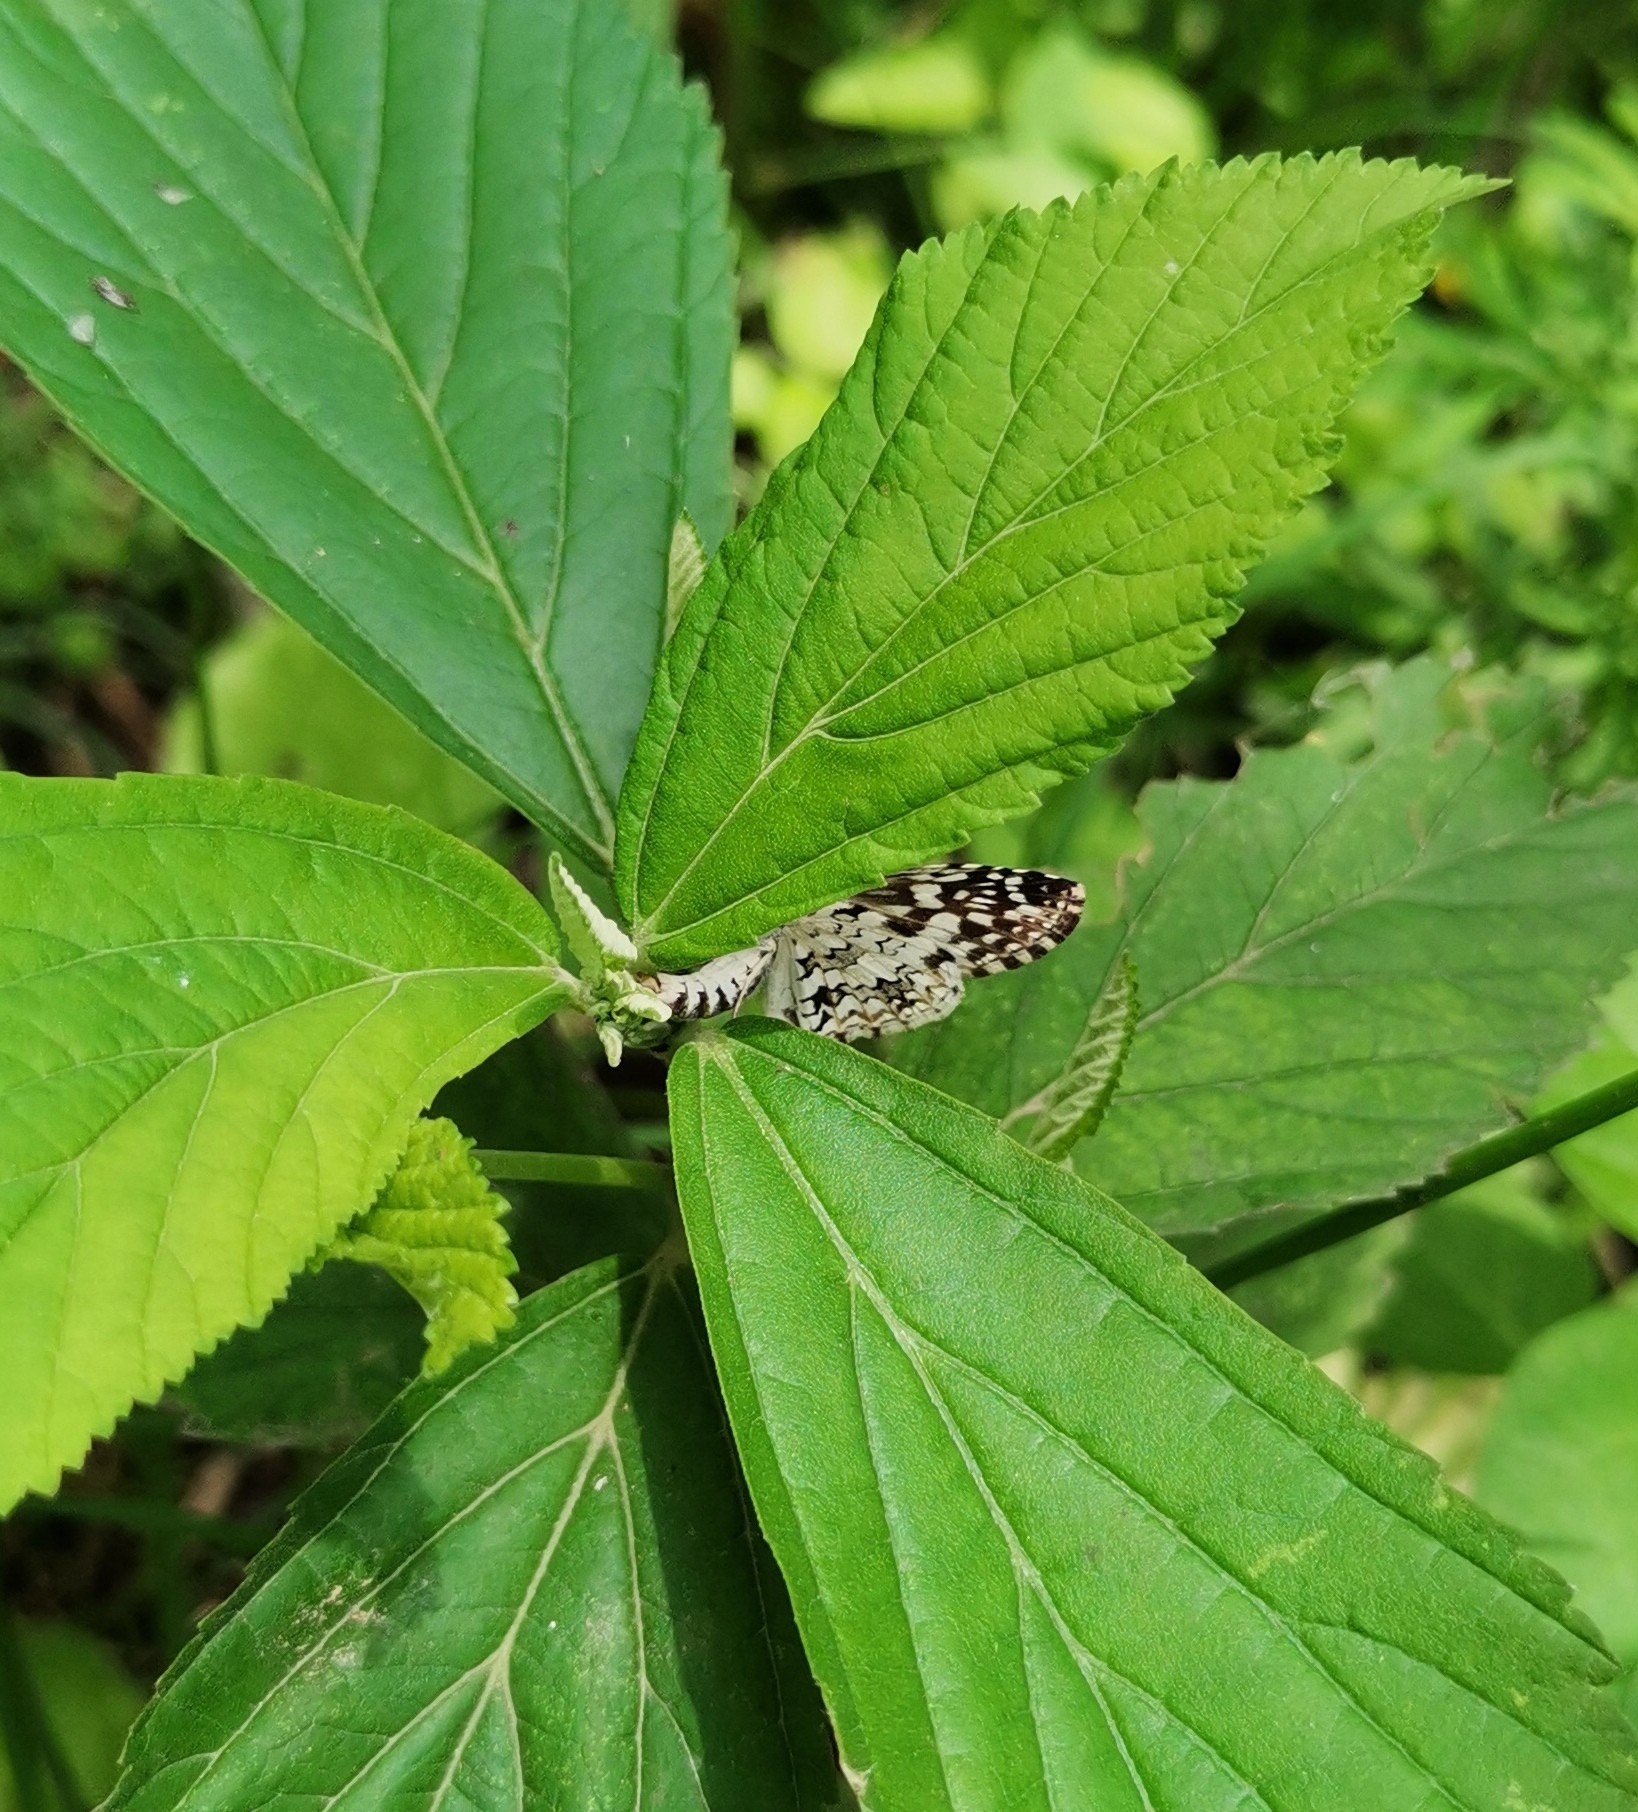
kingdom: Animalia
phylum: Arthropoda
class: Insecta
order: Lepidoptera
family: Hesperiidae
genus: Pyrgus
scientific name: Pyrgus oileus
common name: Tropical checkered-skipper
